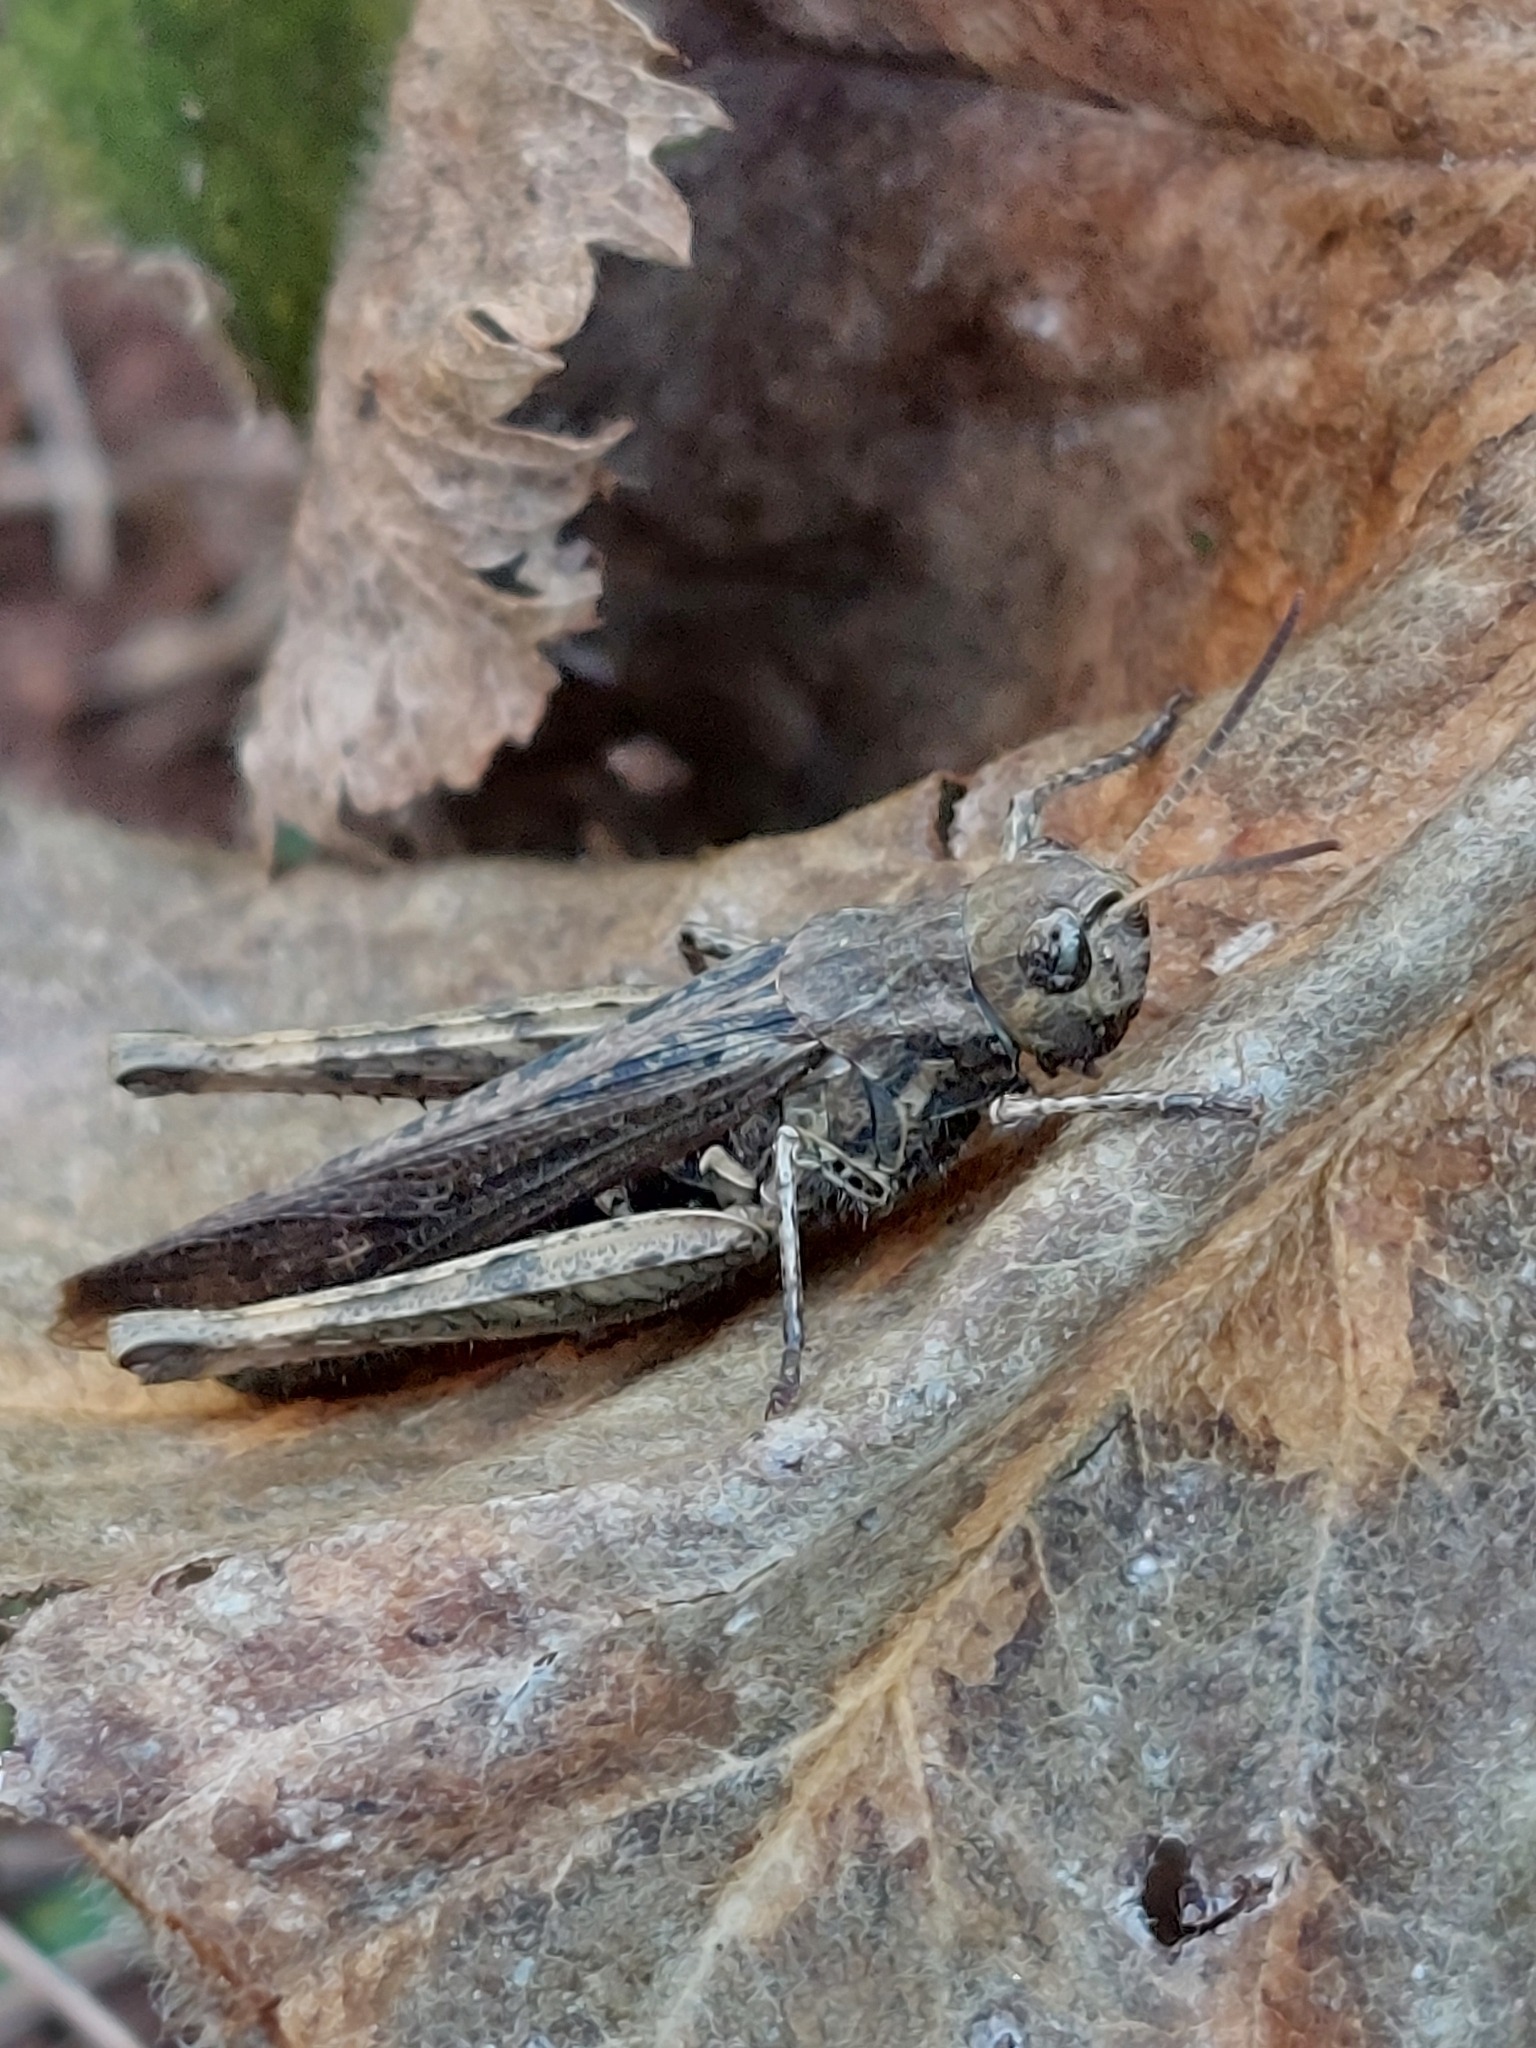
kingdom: Animalia
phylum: Arthropoda
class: Insecta
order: Orthoptera
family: Acrididae
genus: Chorthippus
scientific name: Chorthippus brunneus
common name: Field grasshopper
